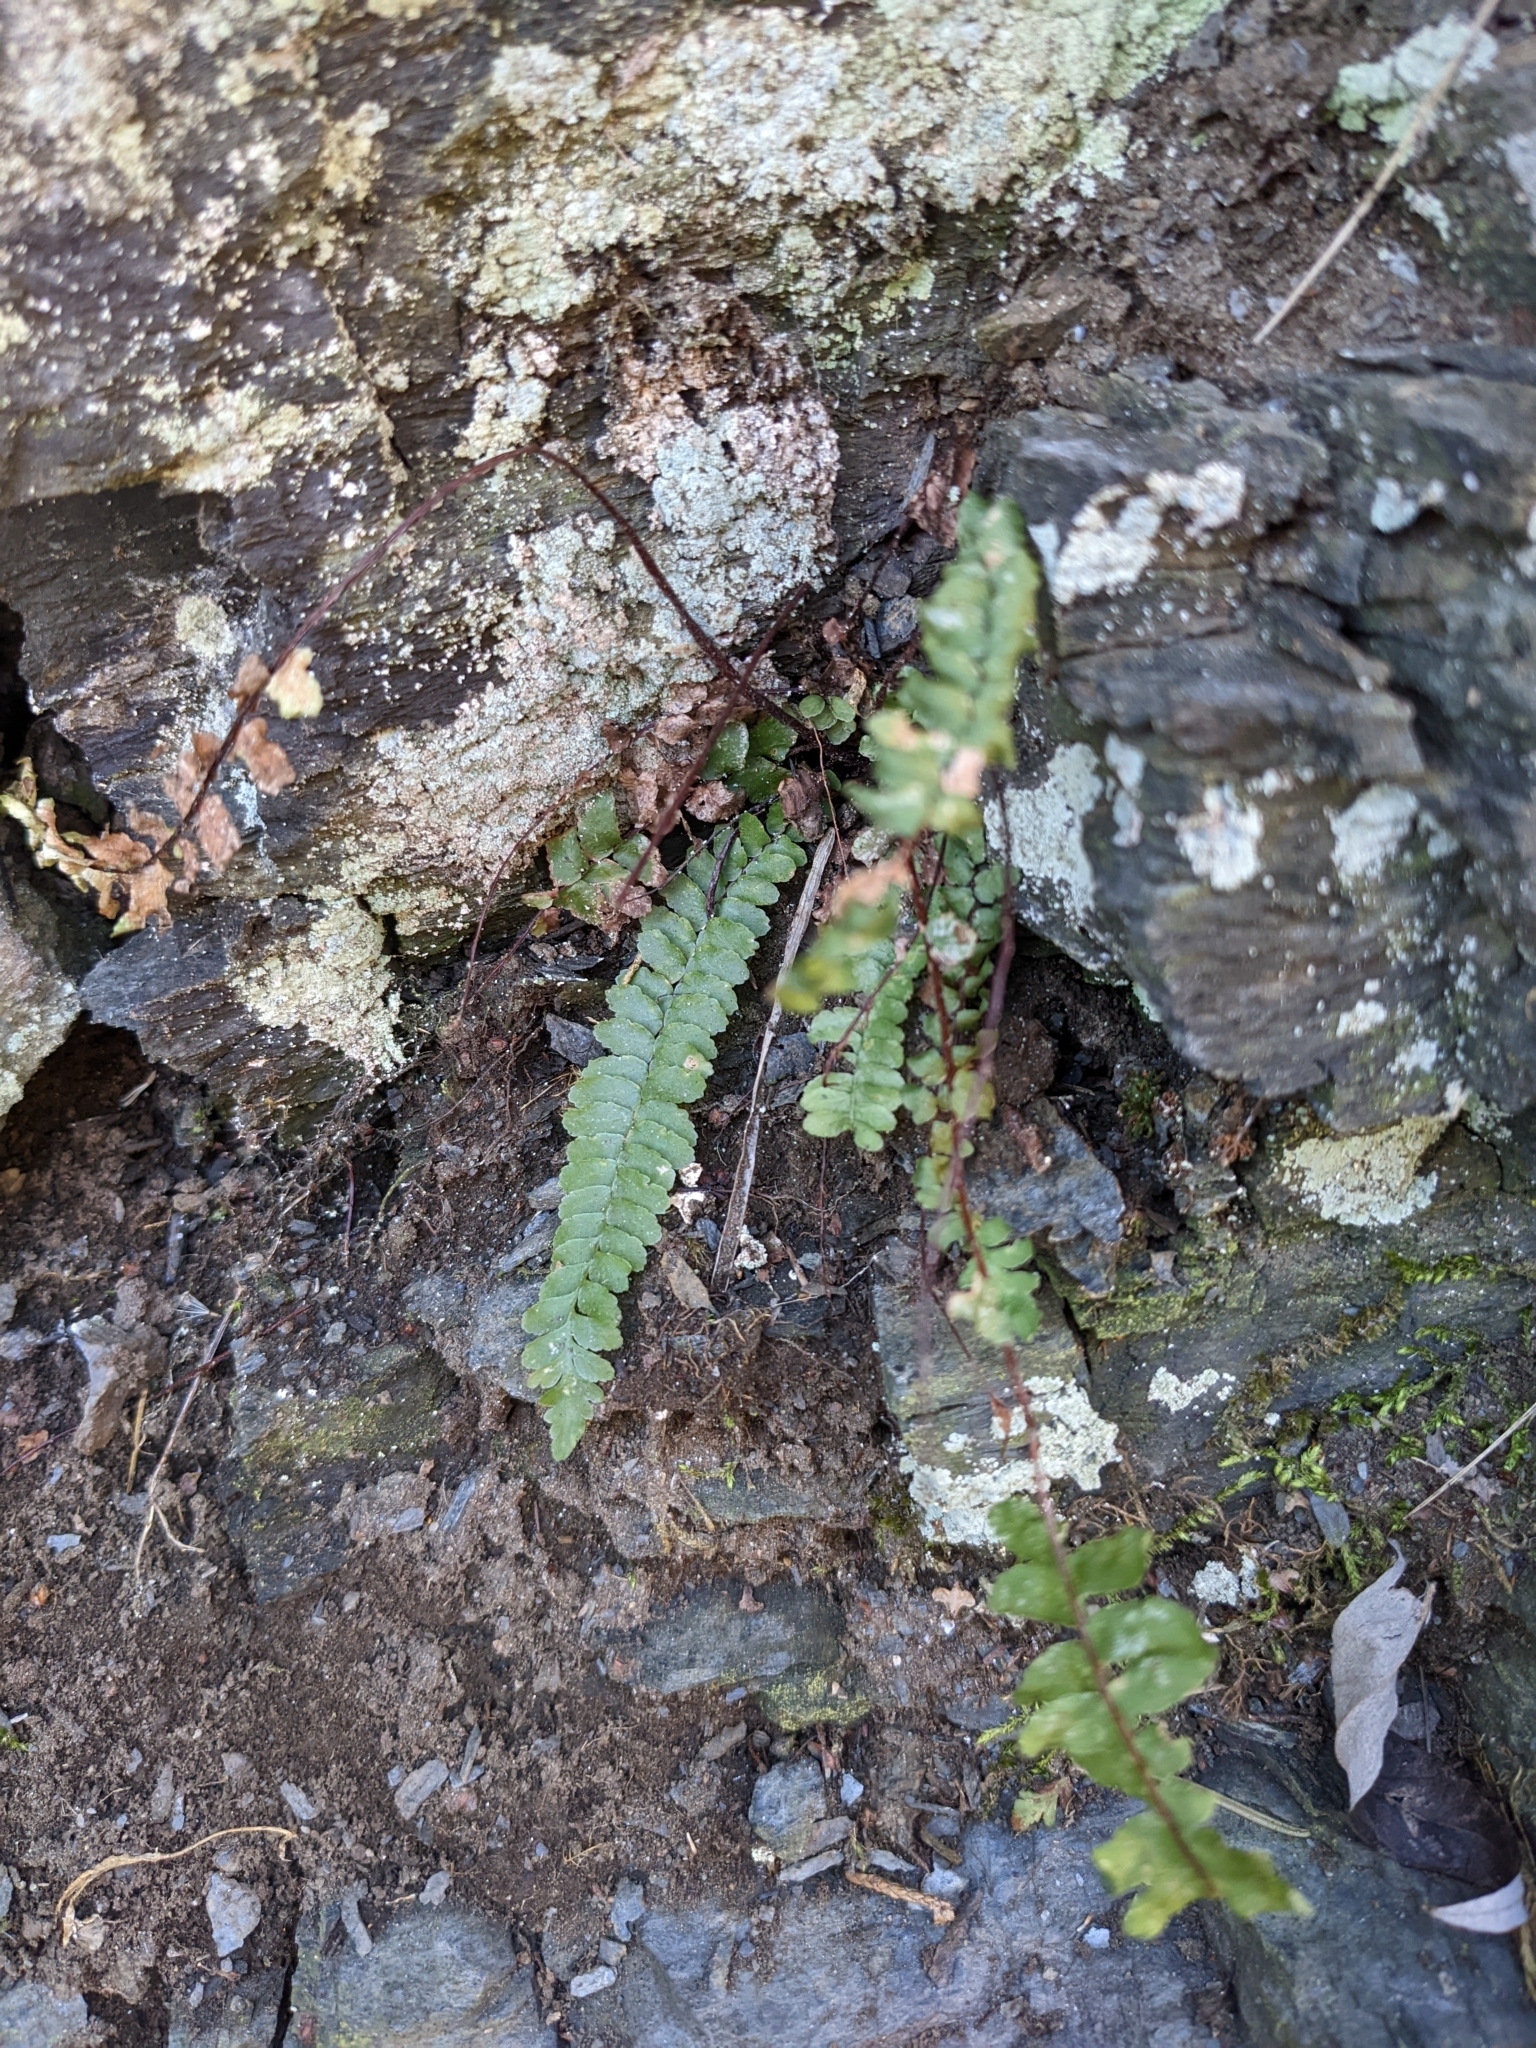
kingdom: Plantae
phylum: Tracheophyta
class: Polypodiopsida
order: Polypodiales
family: Aspleniaceae
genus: Asplenium
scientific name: Asplenium platyneuron
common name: Ebony spleenwort
